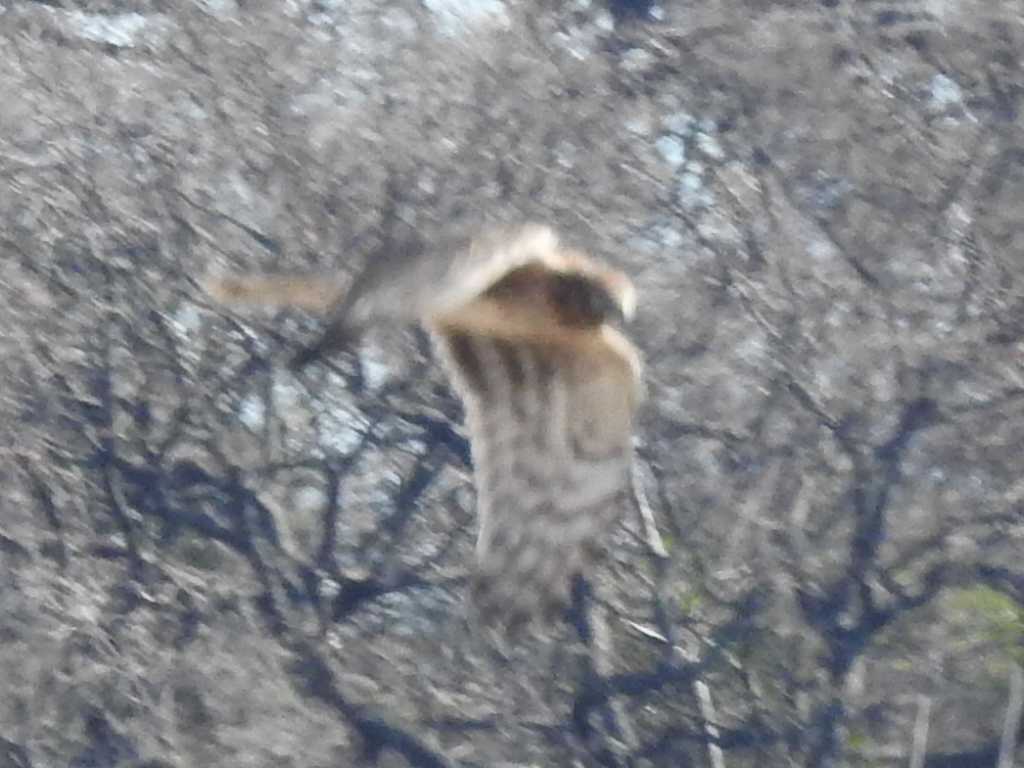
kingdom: Animalia
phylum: Chordata
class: Aves
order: Accipitriformes
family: Accipitridae
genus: Circus
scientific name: Circus cyaneus
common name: Hen harrier
